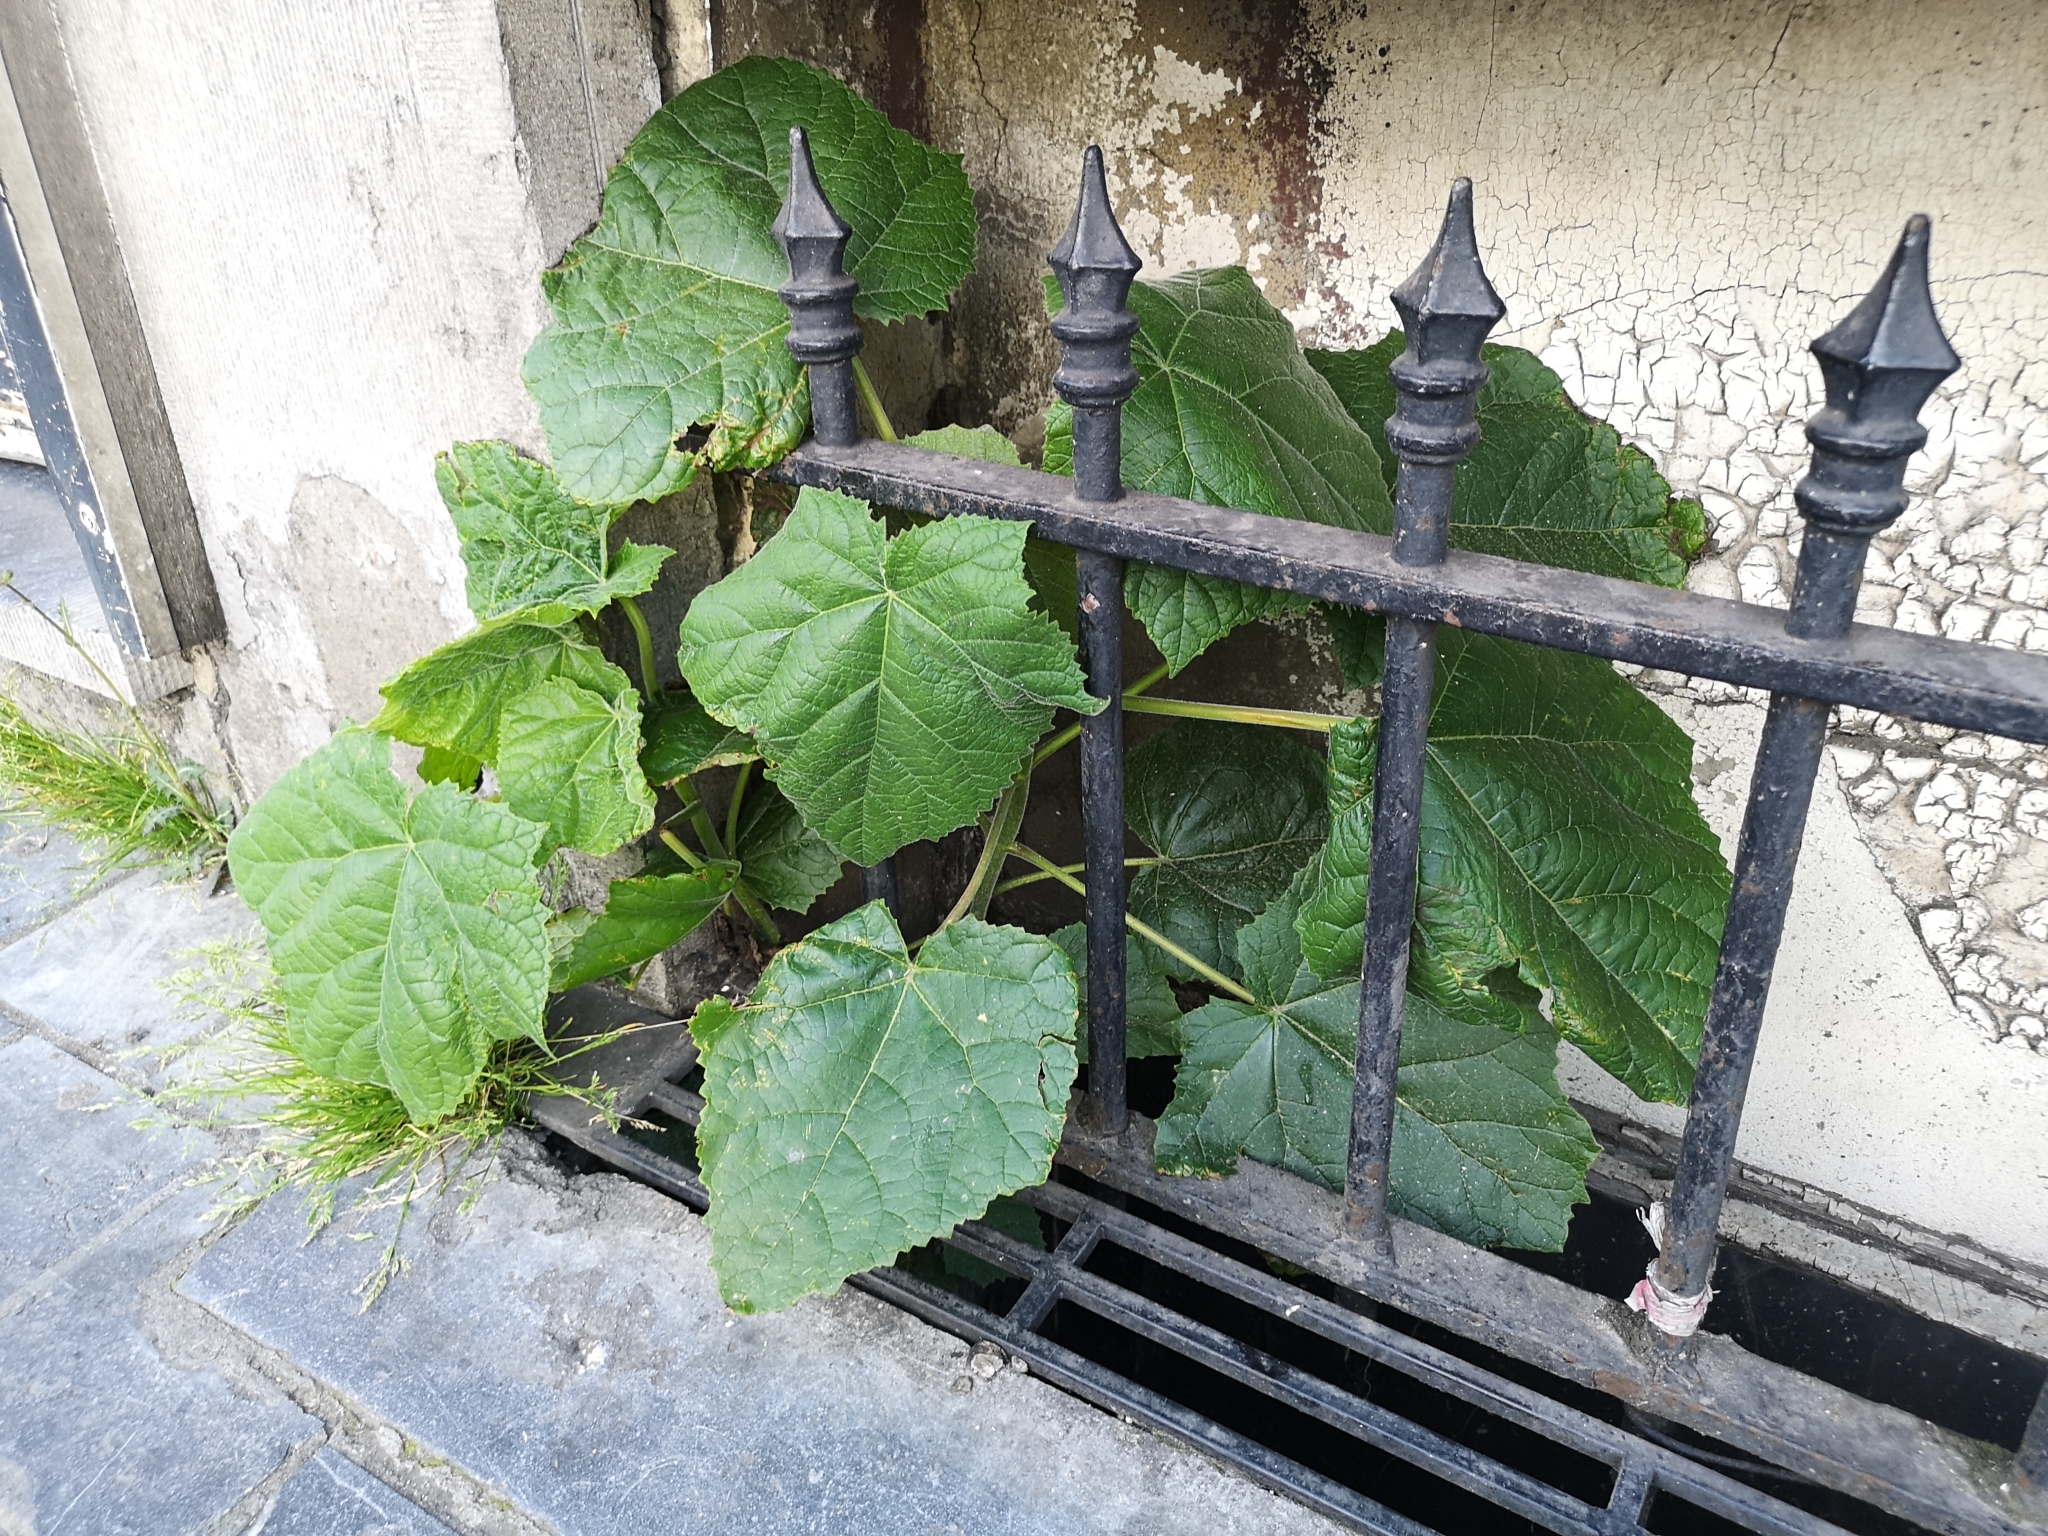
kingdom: Plantae
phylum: Tracheophyta
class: Magnoliopsida
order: Lamiales
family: Paulowniaceae
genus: Paulownia
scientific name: Paulownia tomentosa
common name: Foxglove-tree
